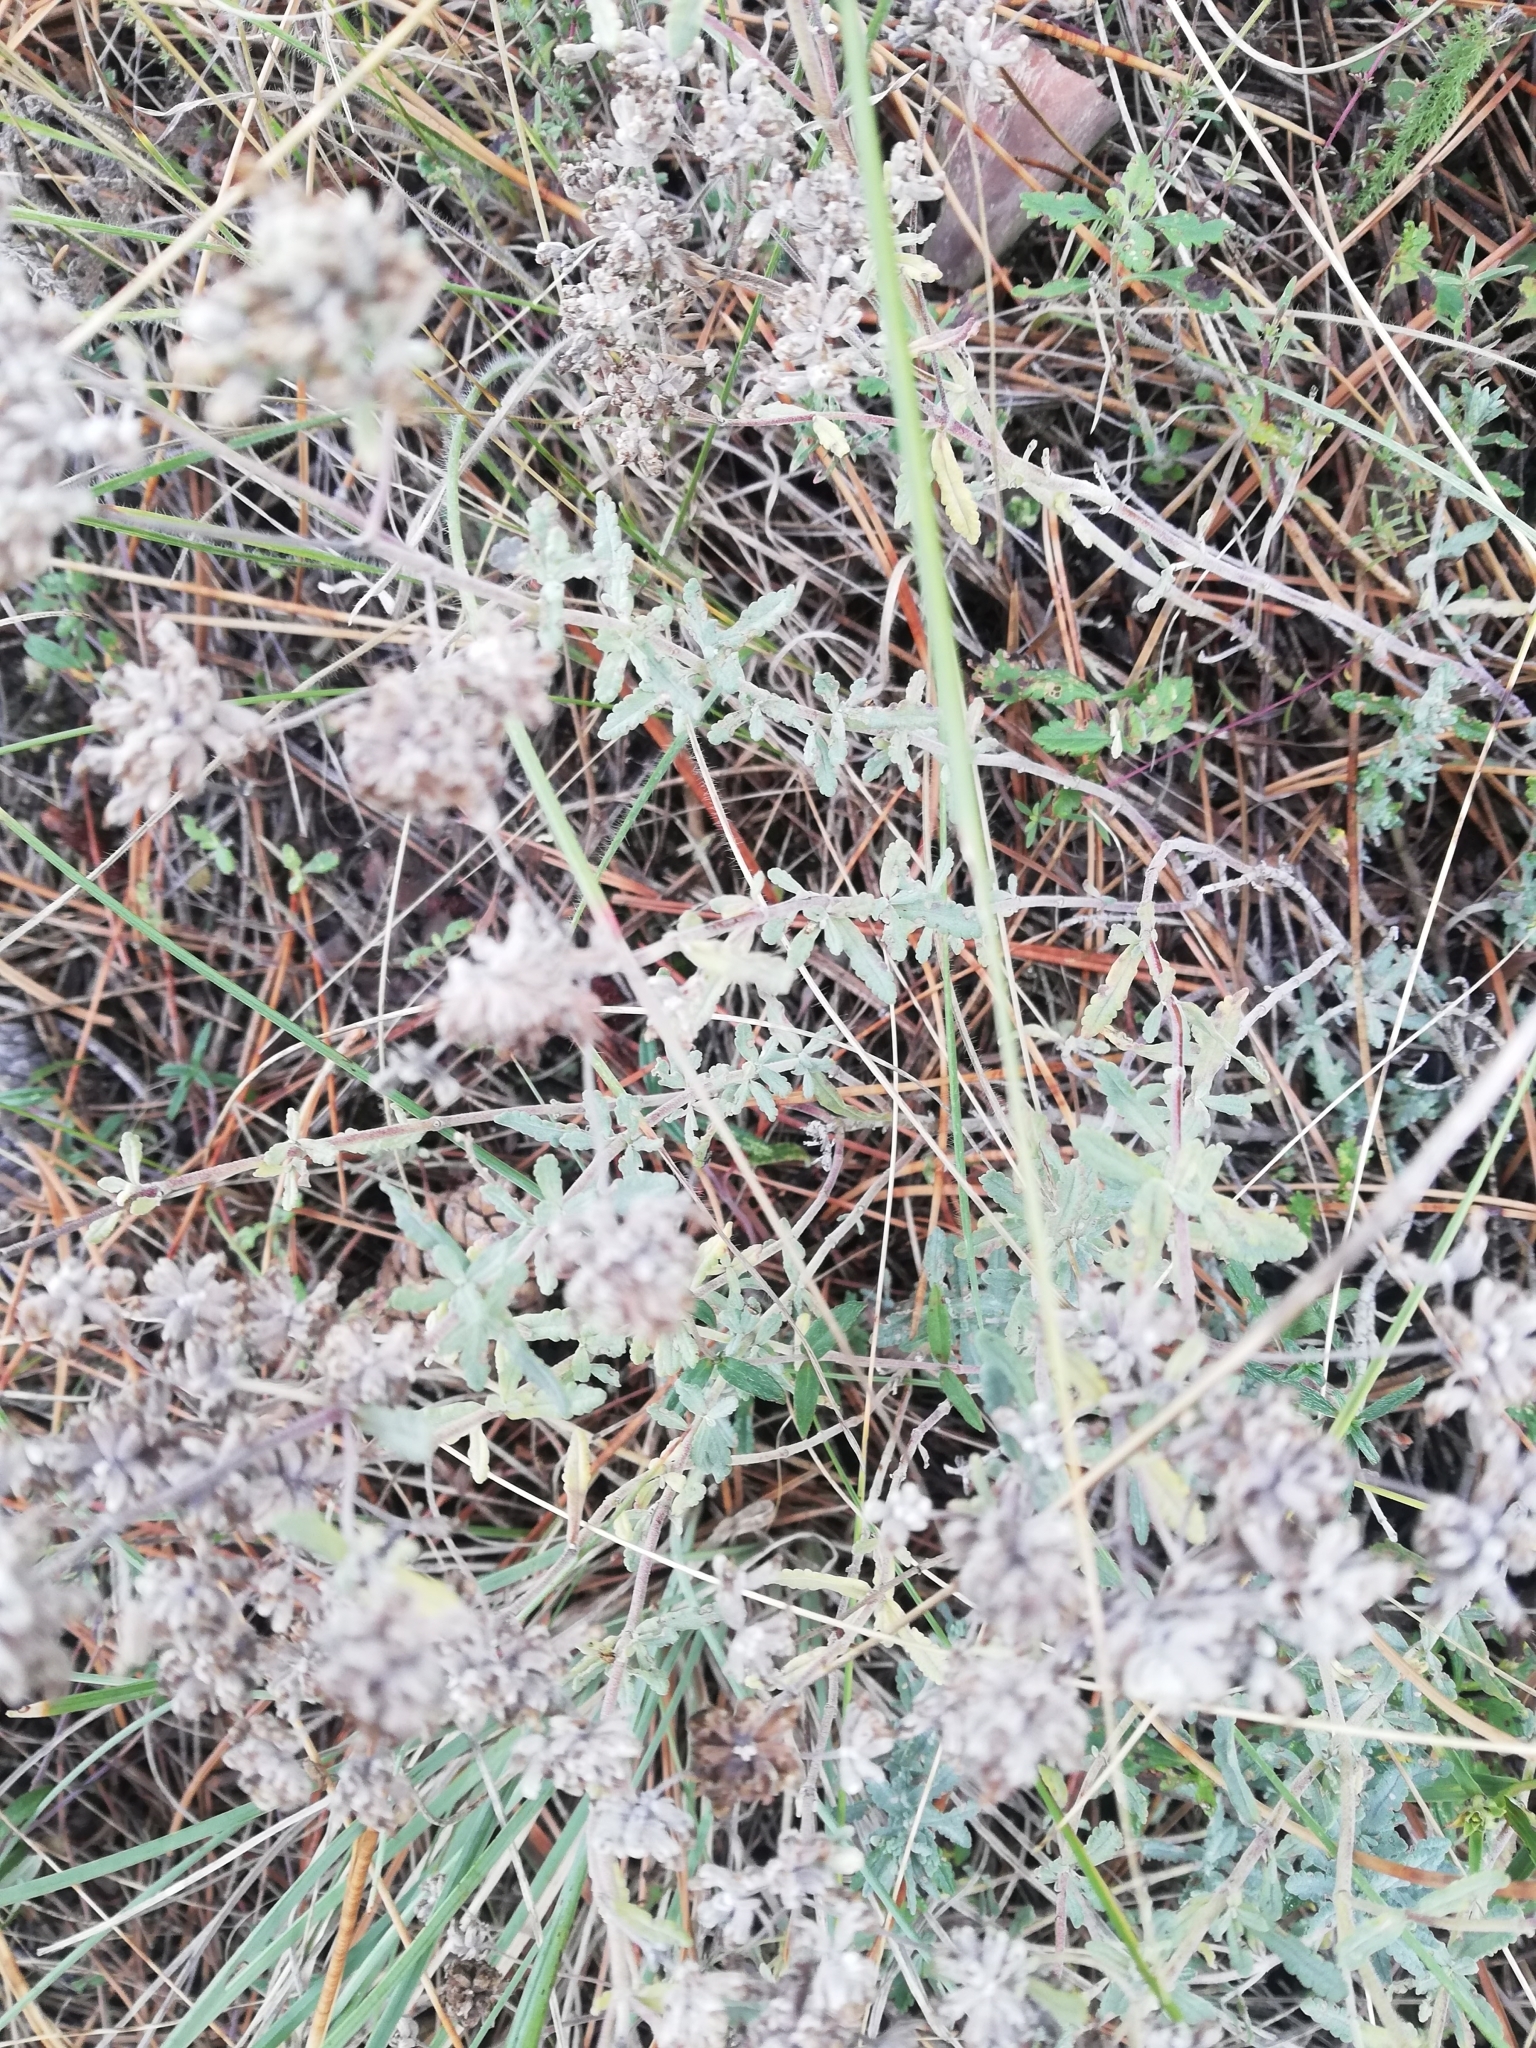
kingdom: Plantae
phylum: Tracheophyta
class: Magnoliopsida
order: Lamiales
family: Lamiaceae
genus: Teucrium
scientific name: Teucrium polium
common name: Poley
